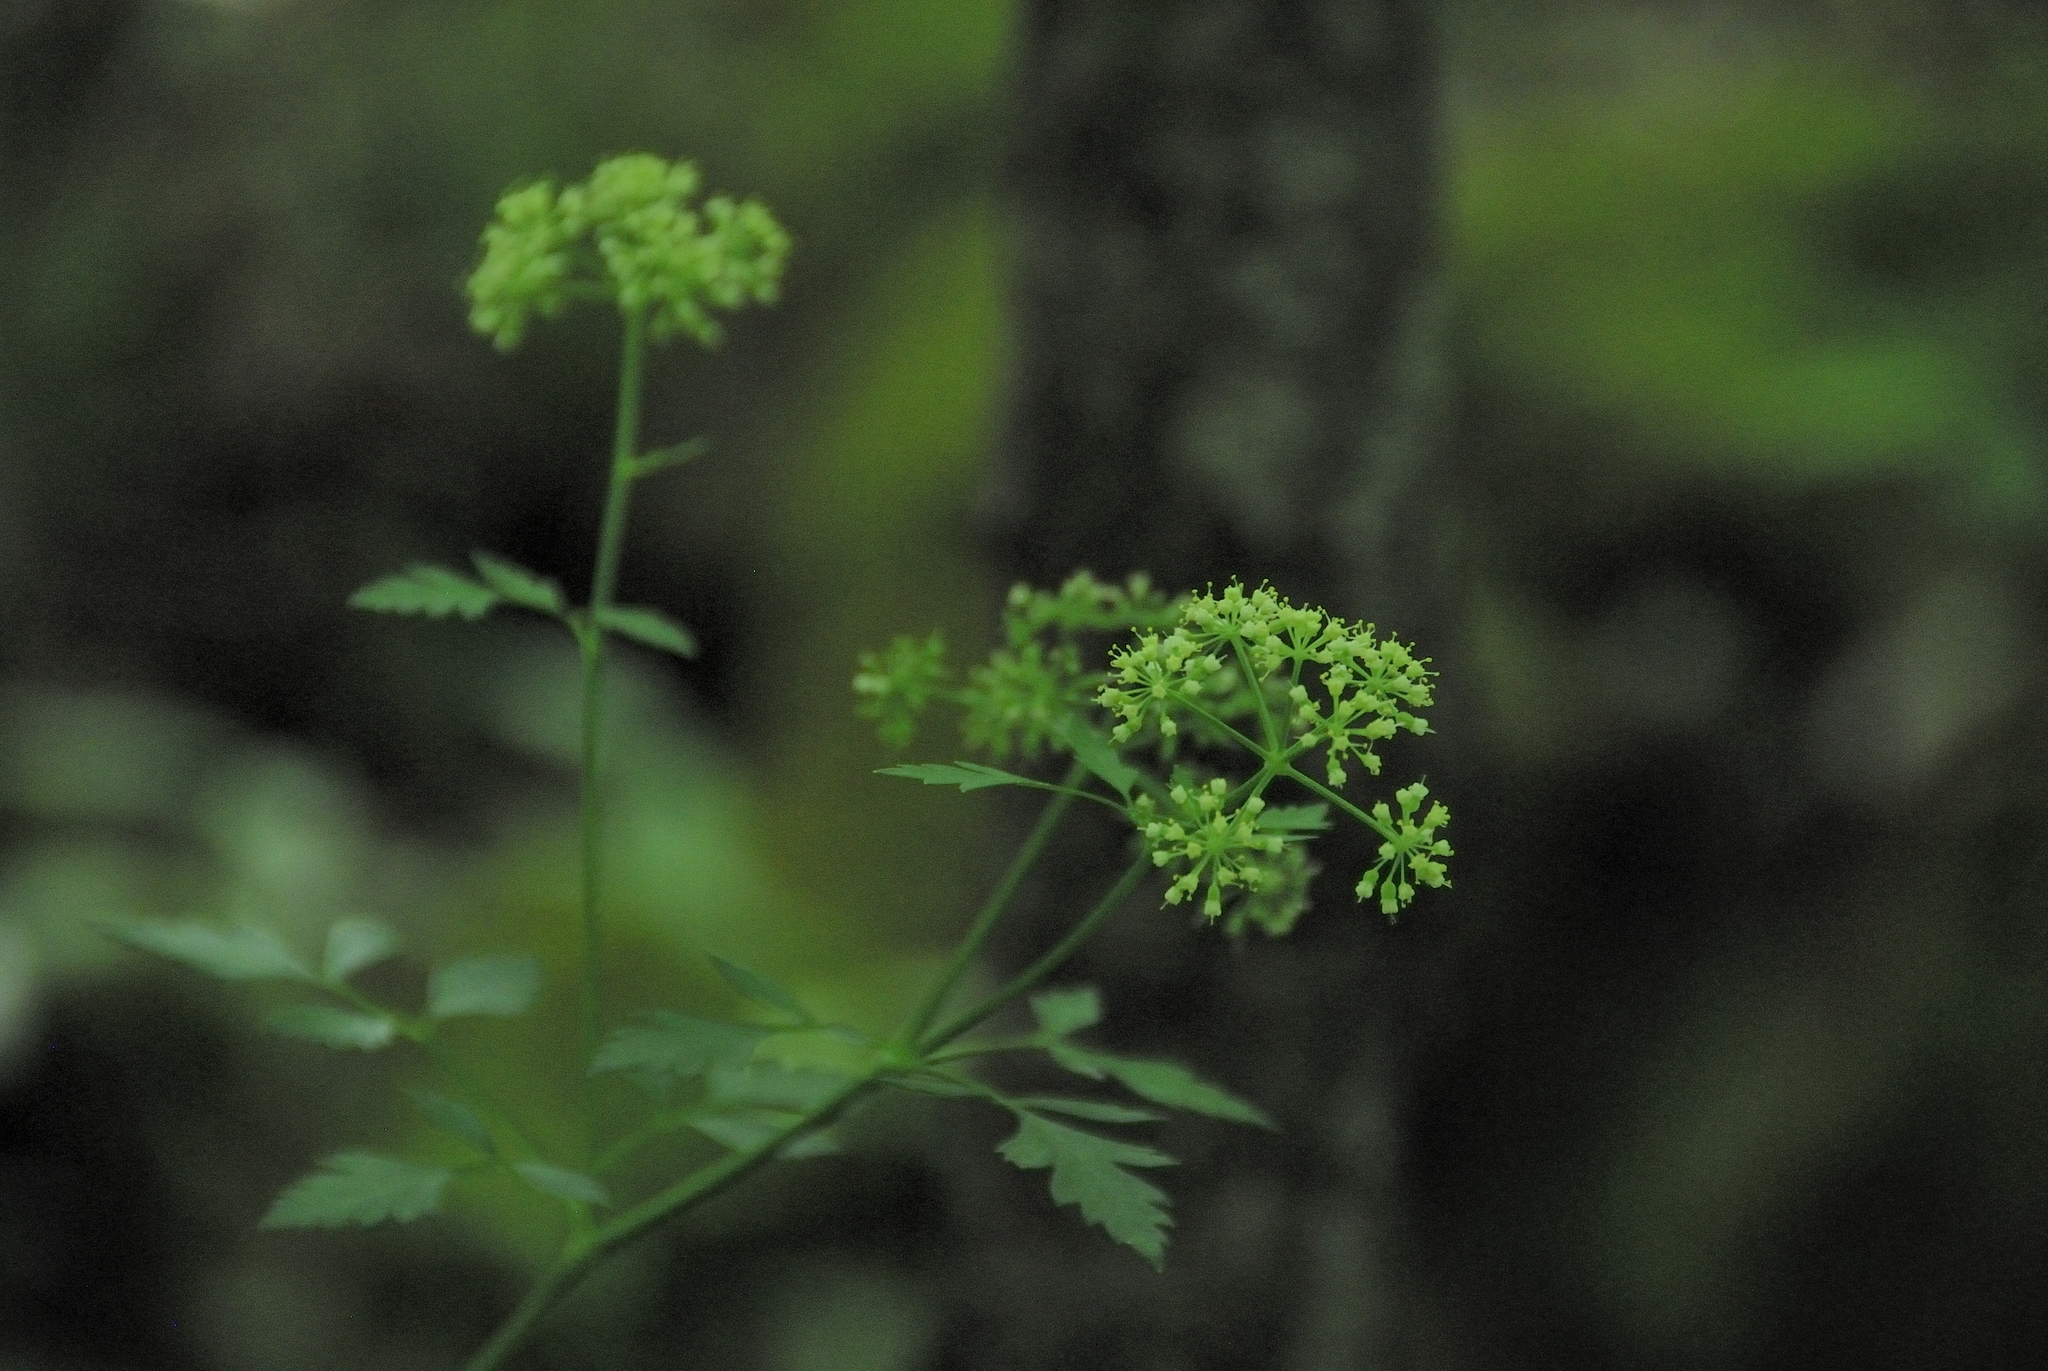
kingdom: Plantae
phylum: Tracheophyta
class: Magnoliopsida
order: Apiales
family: Apiaceae
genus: Thaspium
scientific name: Thaspium barbinode
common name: Bearded meadow-parsnip
